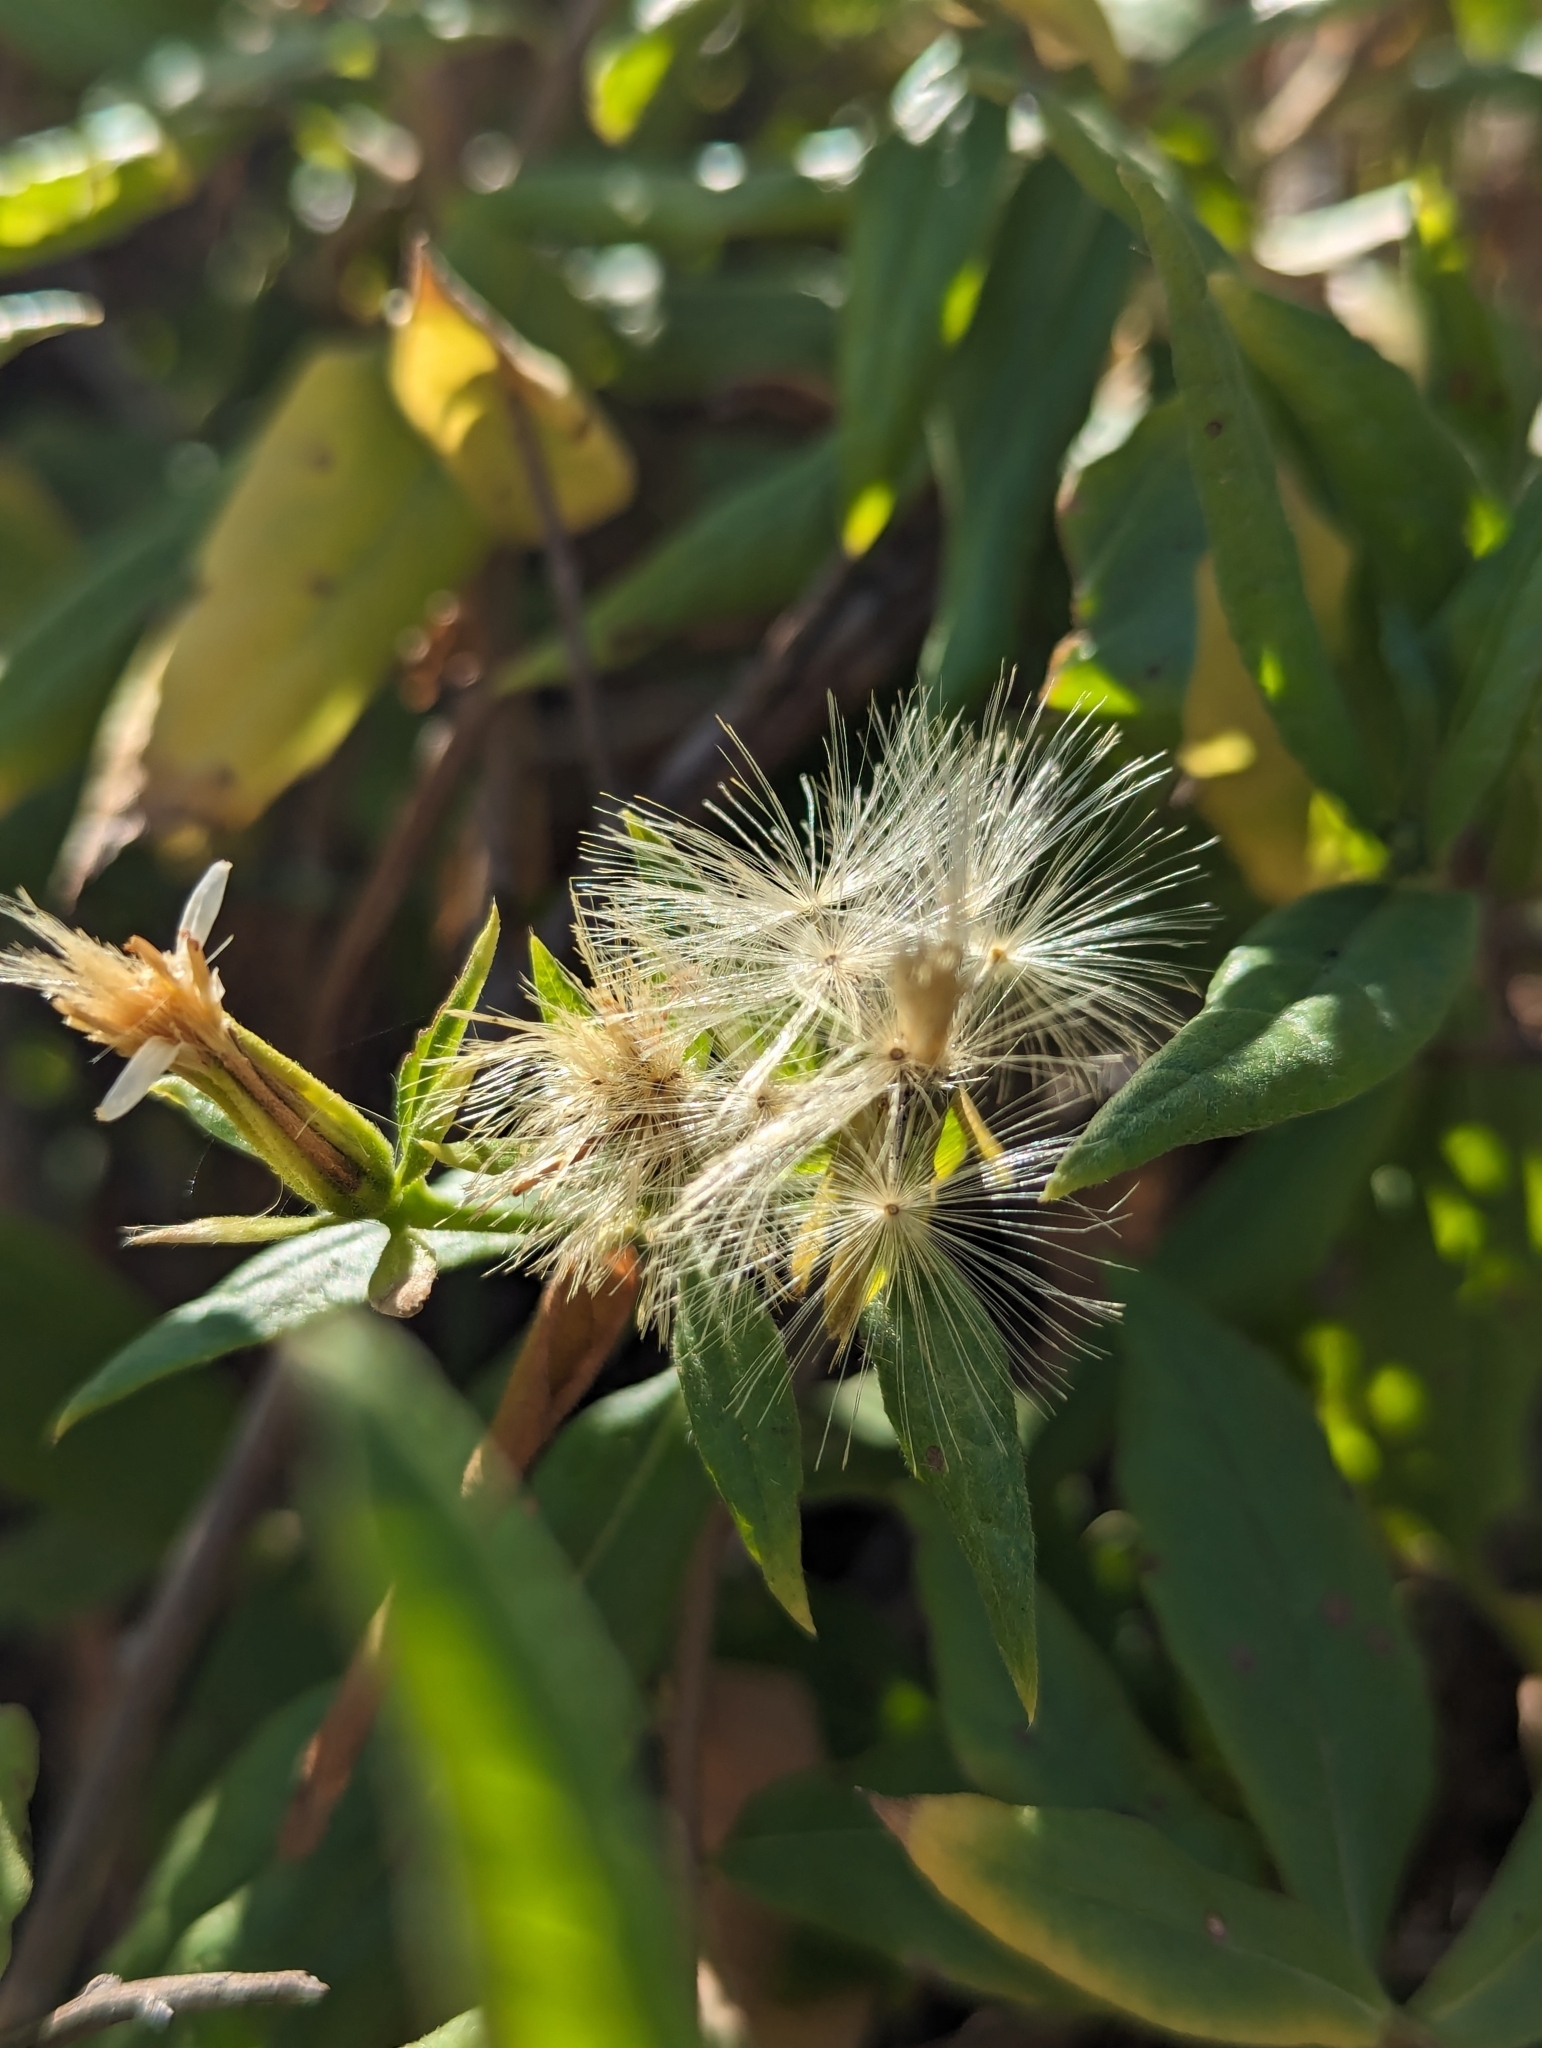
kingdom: Plantae
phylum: Tracheophyta
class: Magnoliopsida
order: Asterales
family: Asteraceae
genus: Trixis
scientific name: Trixis californica
